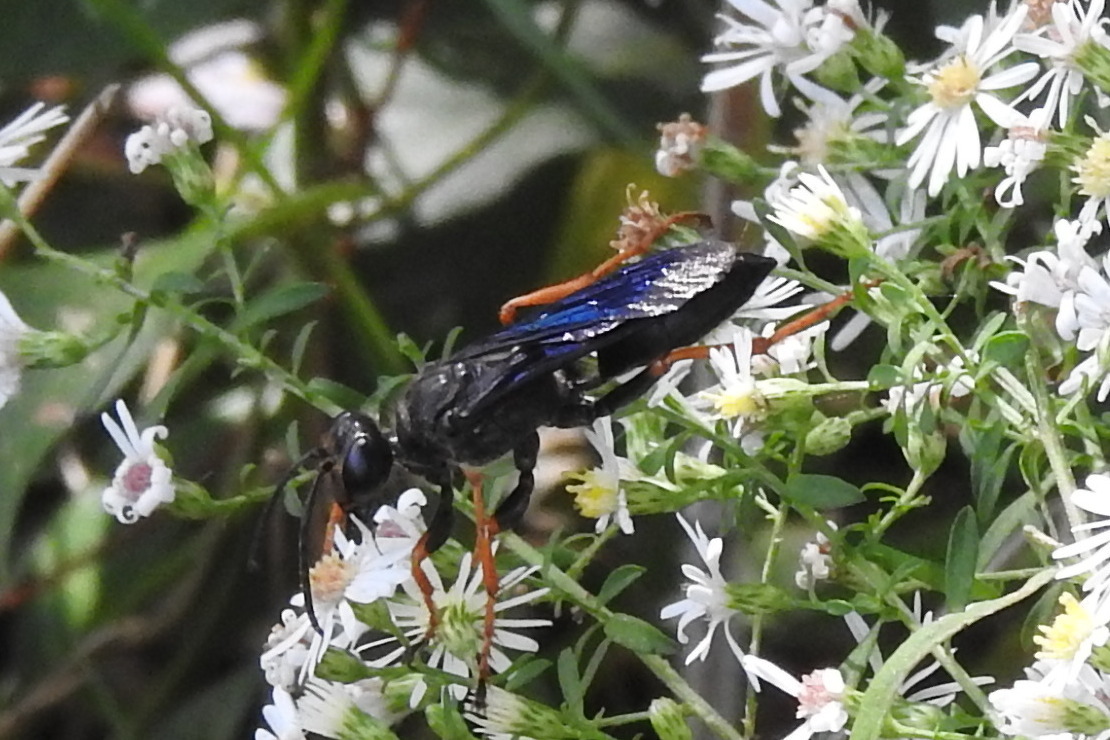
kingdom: Animalia
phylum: Arthropoda
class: Insecta
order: Hymenoptera
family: Sphecidae
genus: Sphex
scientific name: Sphex nudus
